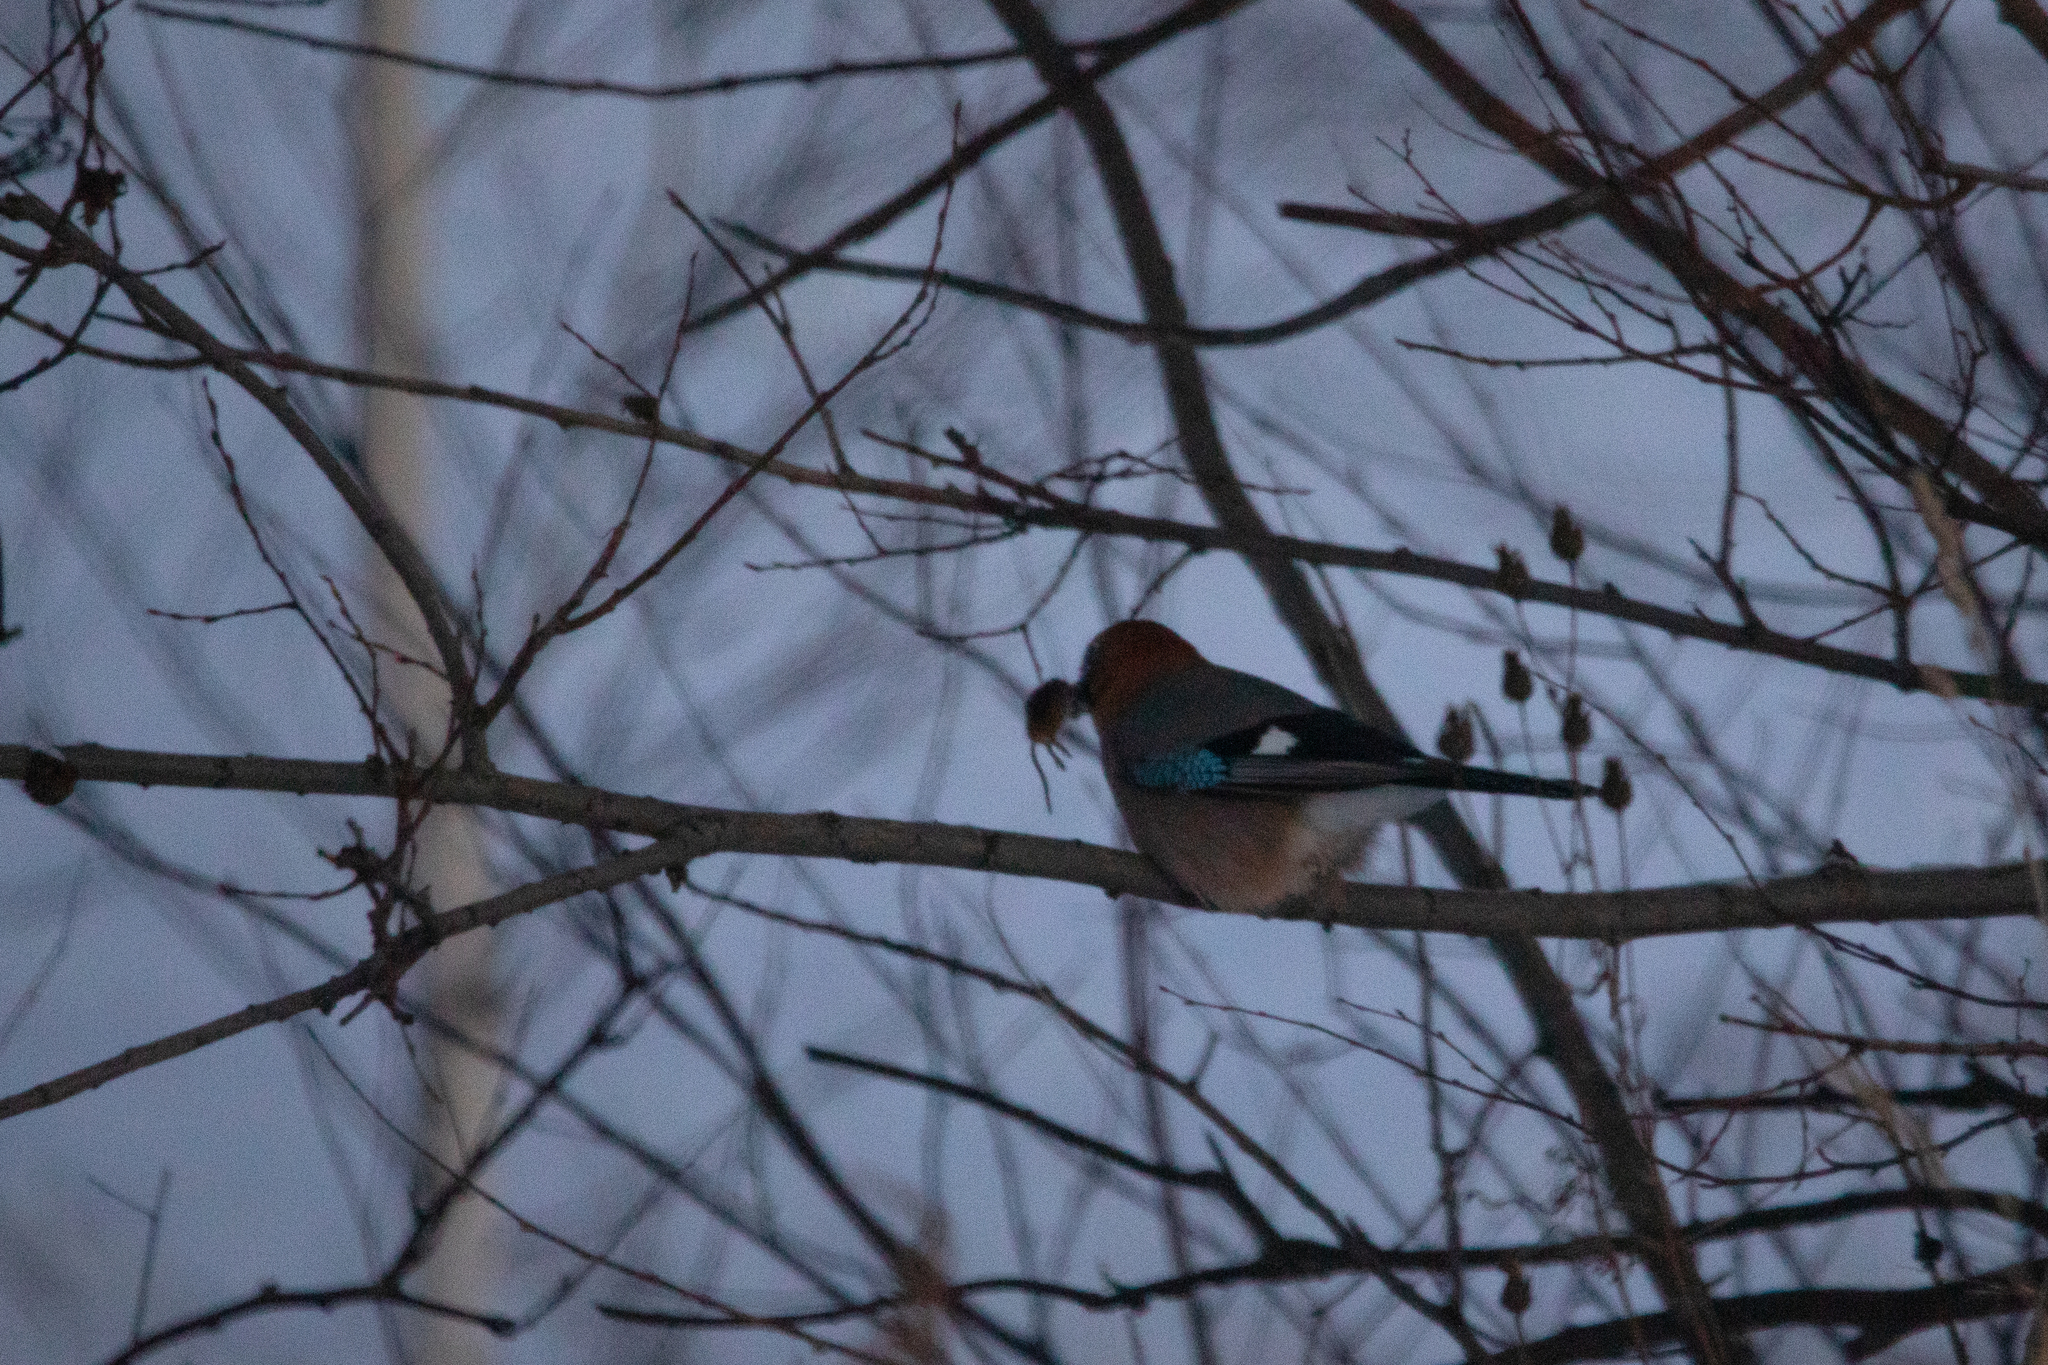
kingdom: Animalia
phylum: Chordata
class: Aves
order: Passeriformes
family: Corvidae
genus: Garrulus
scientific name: Garrulus glandarius
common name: Eurasian jay
